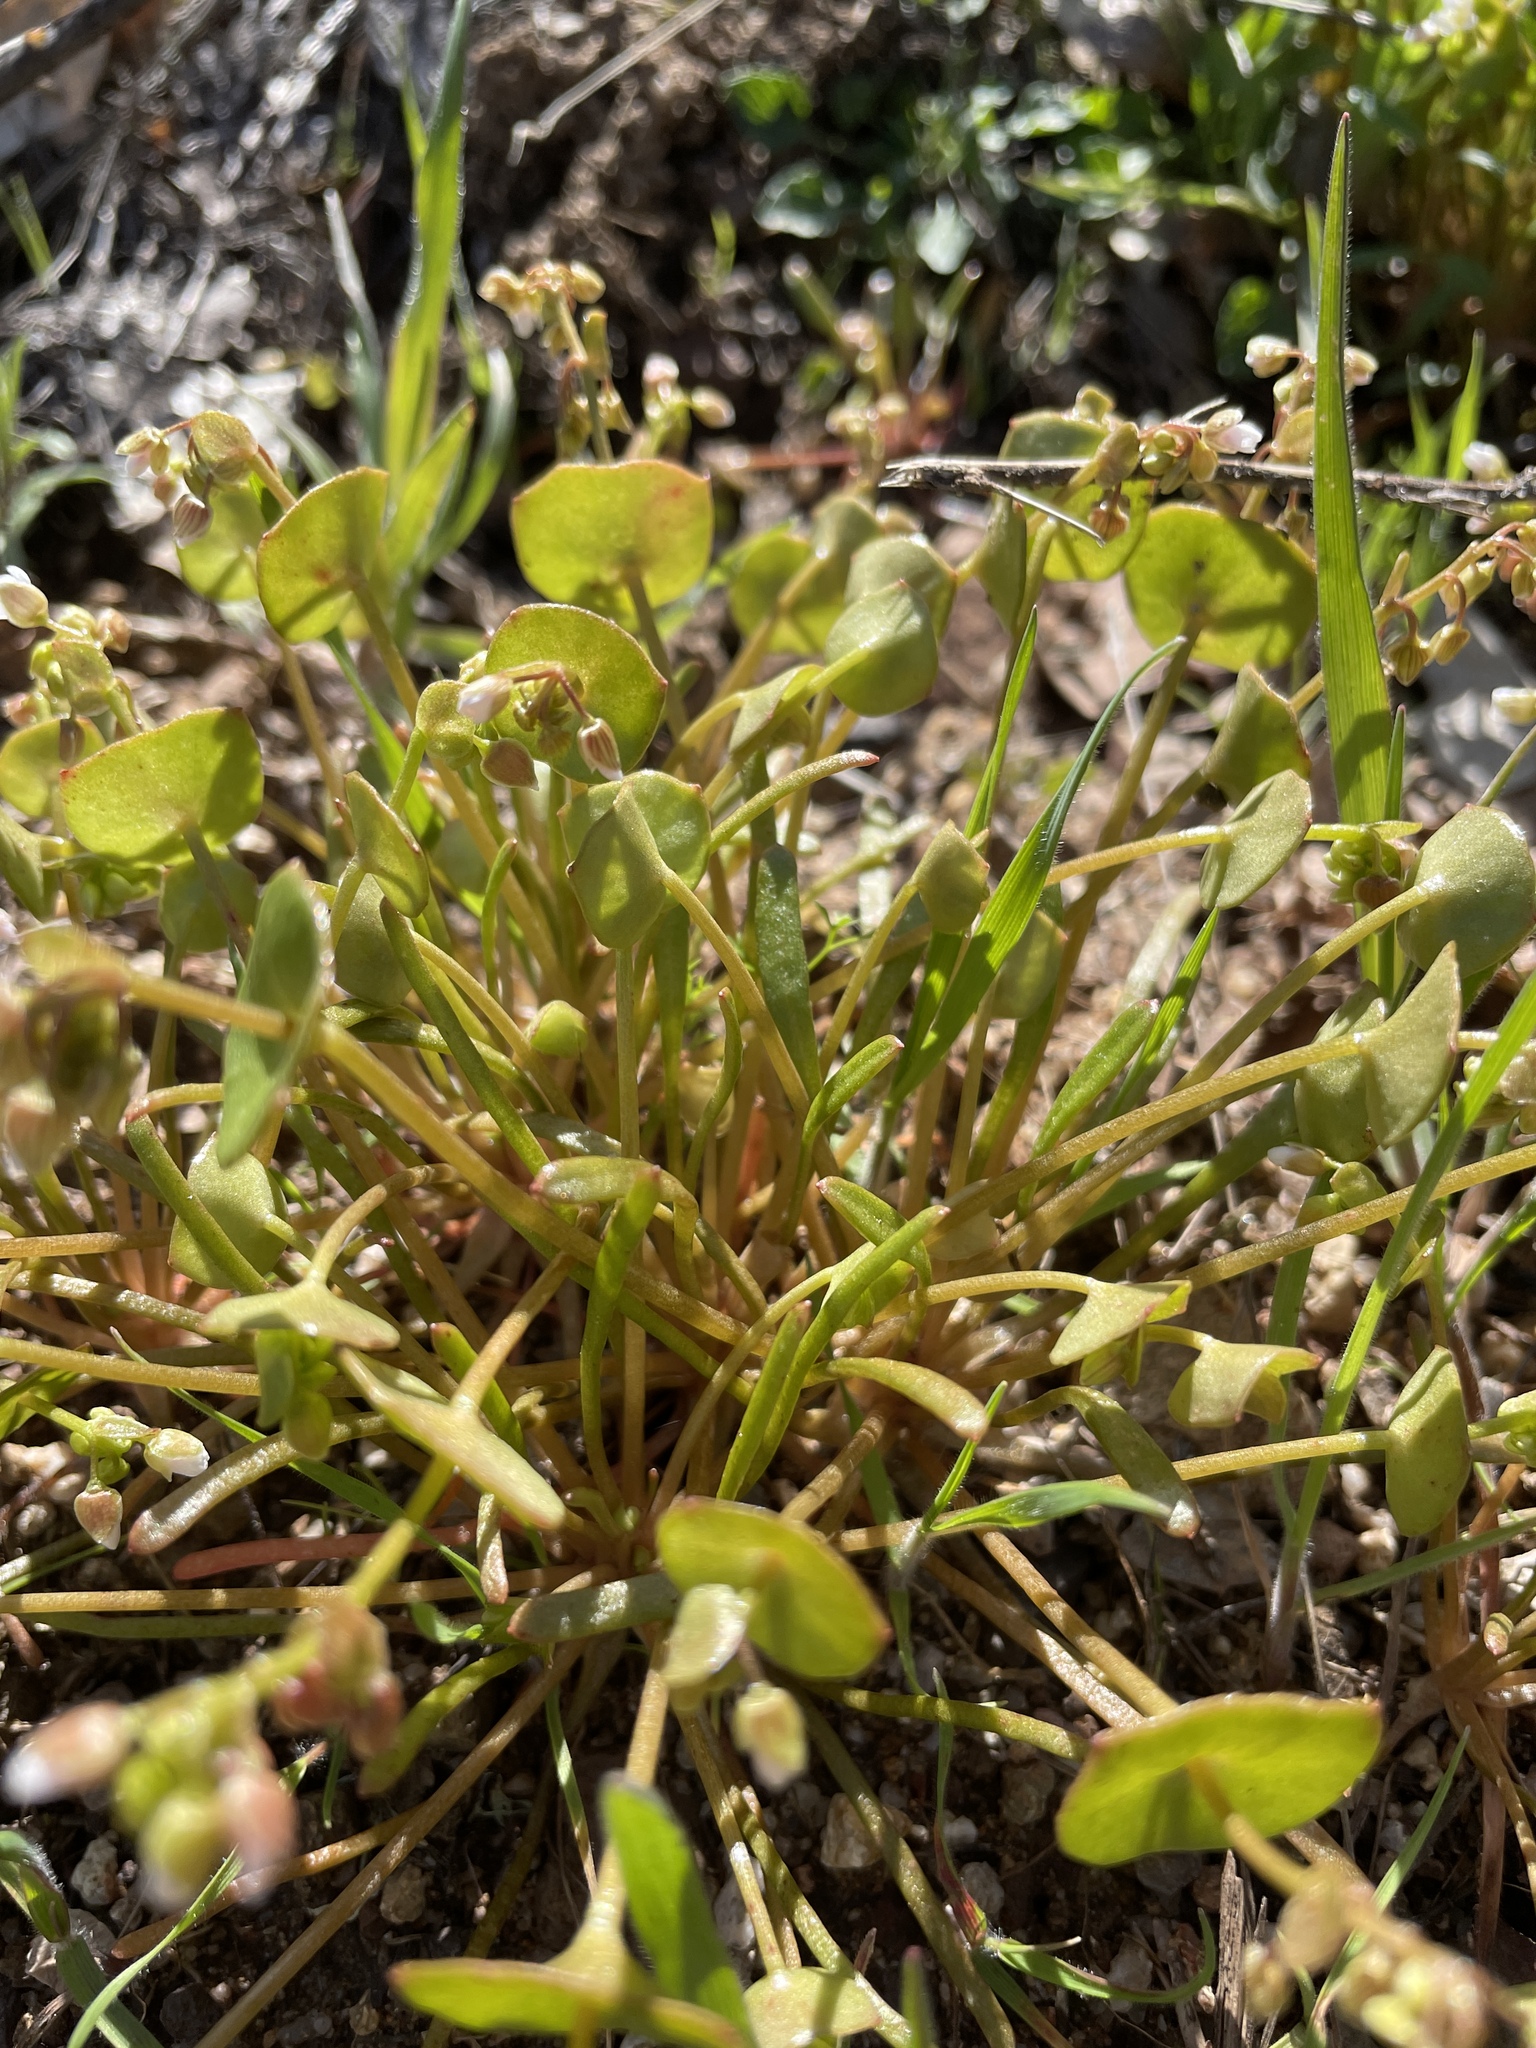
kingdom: Plantae
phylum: Tracheophyta
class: Magnoliopsida
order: Caryophyllales
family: Montiaceae
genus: Claytonia
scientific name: Claytonia perfoliata
